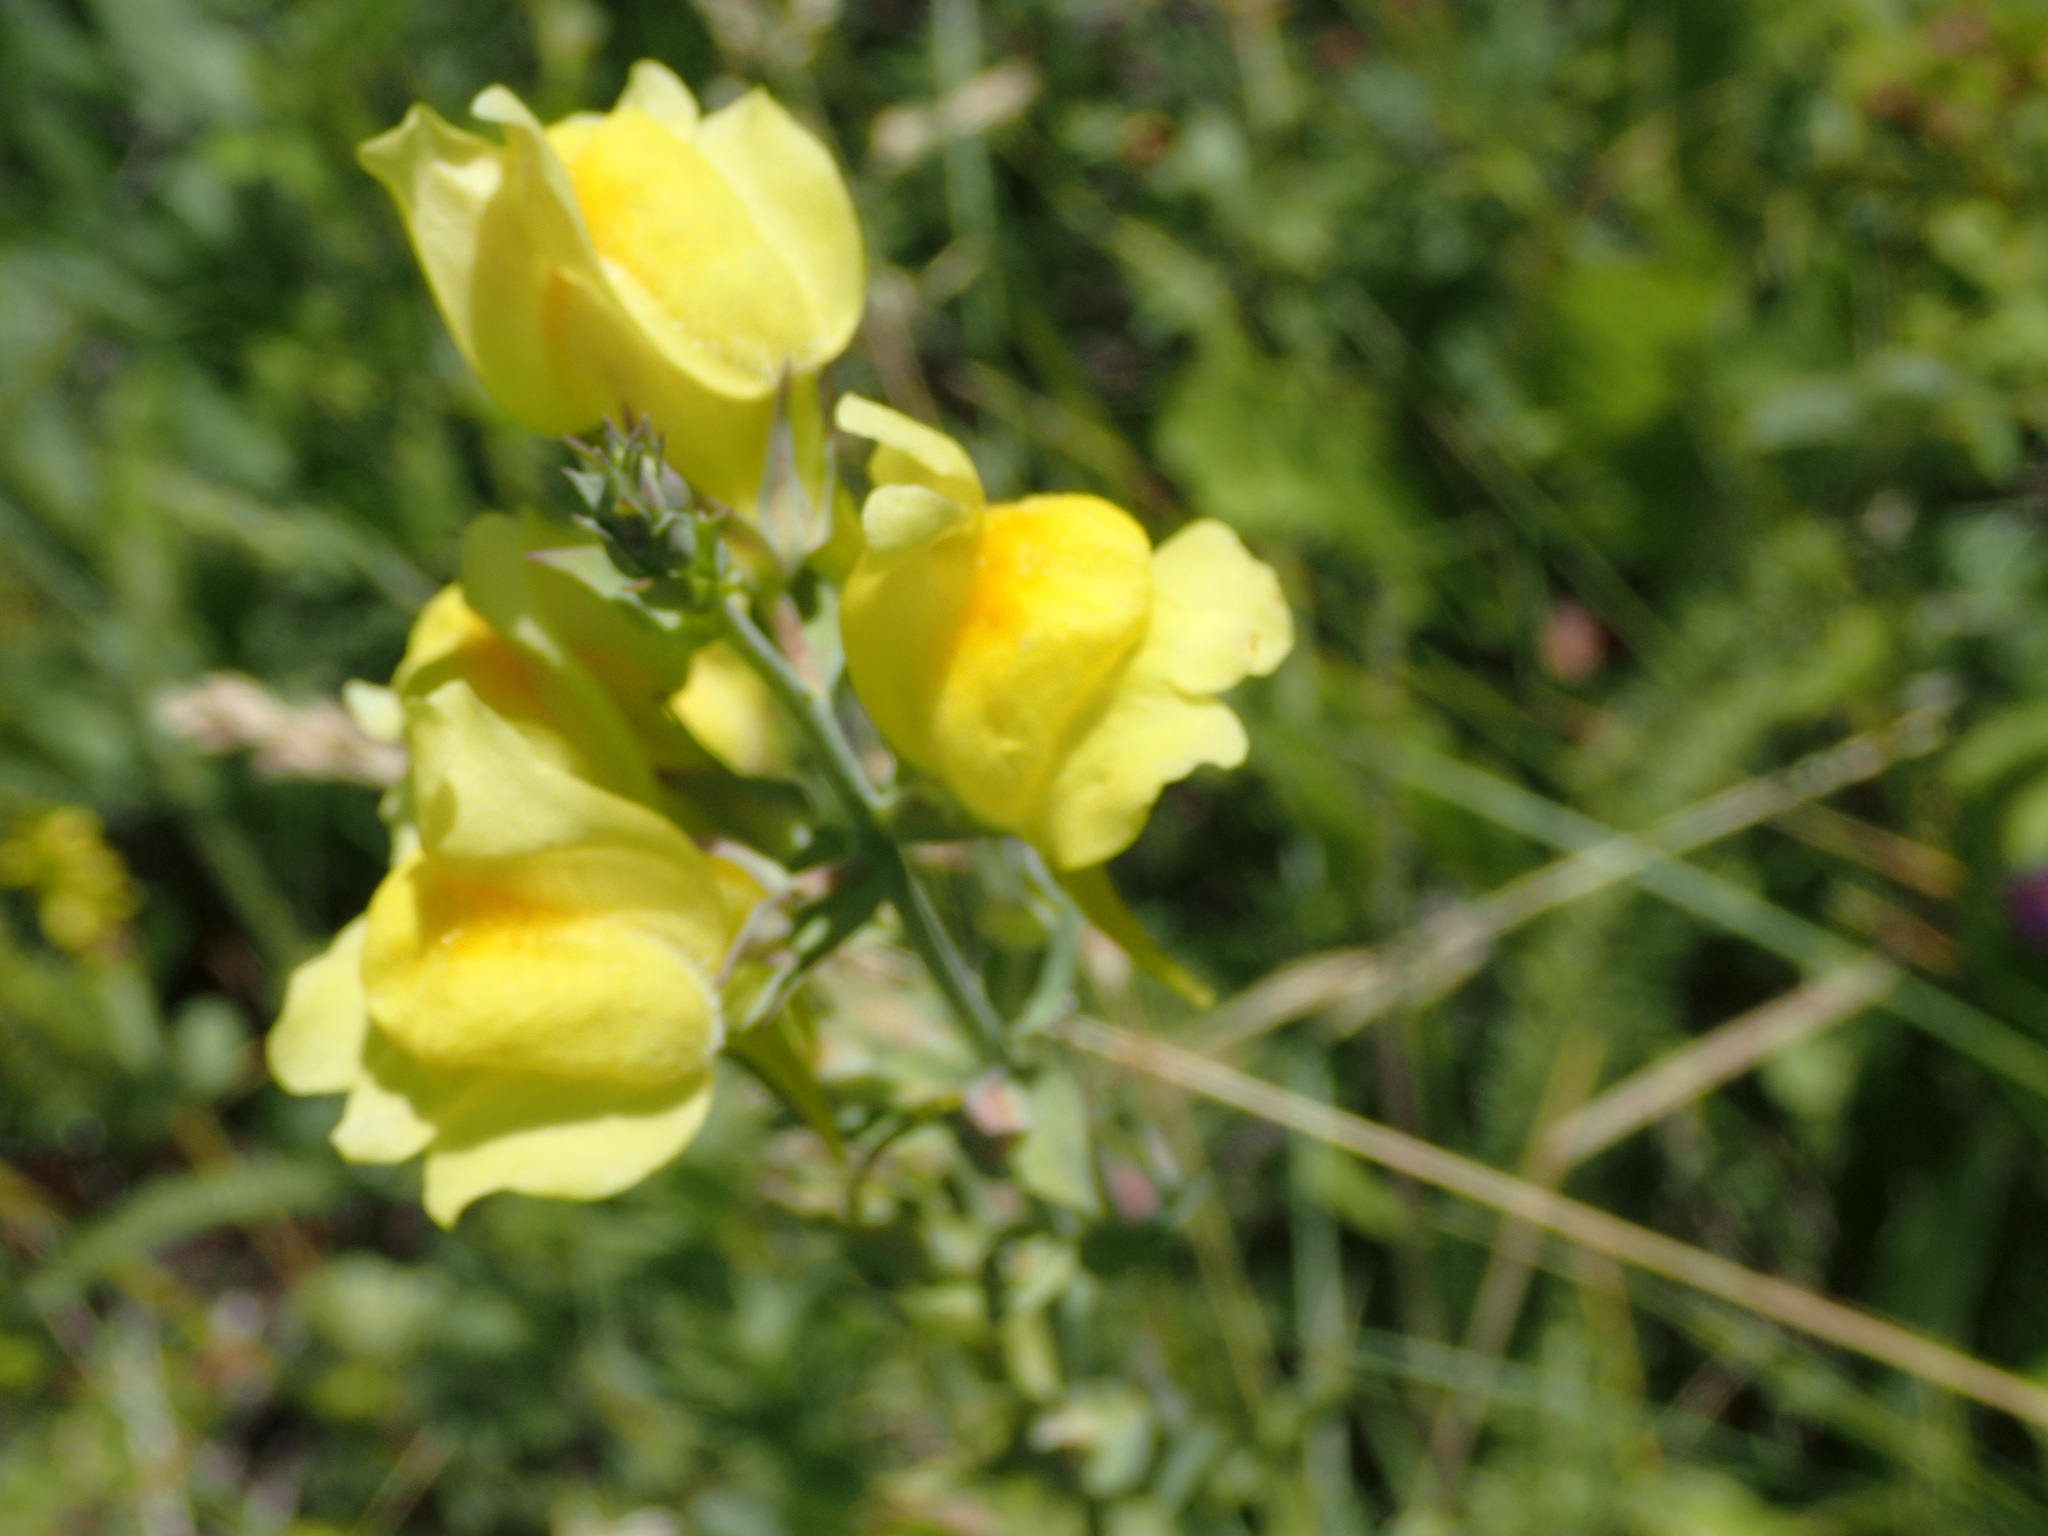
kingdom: Plantae
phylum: Tracheophyta
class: Magnoliopsida
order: Lamiales
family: Plantaginaceae
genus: Linaria
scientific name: Linaria dalmatica
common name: Dalmatian toadflax
